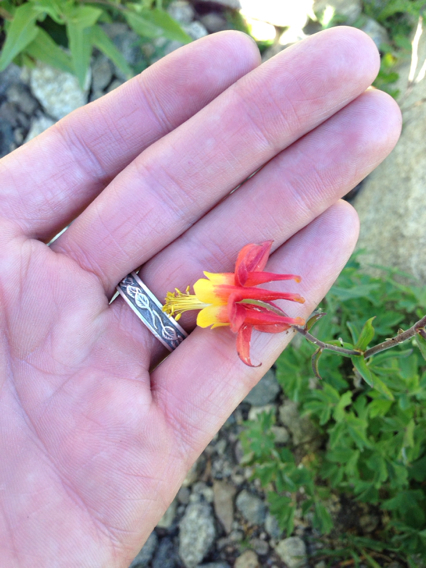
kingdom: Plantae
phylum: Tracheophyta
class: Magnoliopsida
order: Ranunculales
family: Ranunculaceae
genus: Aquilegia
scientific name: Aquilegia formosa
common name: Sitka columbine
